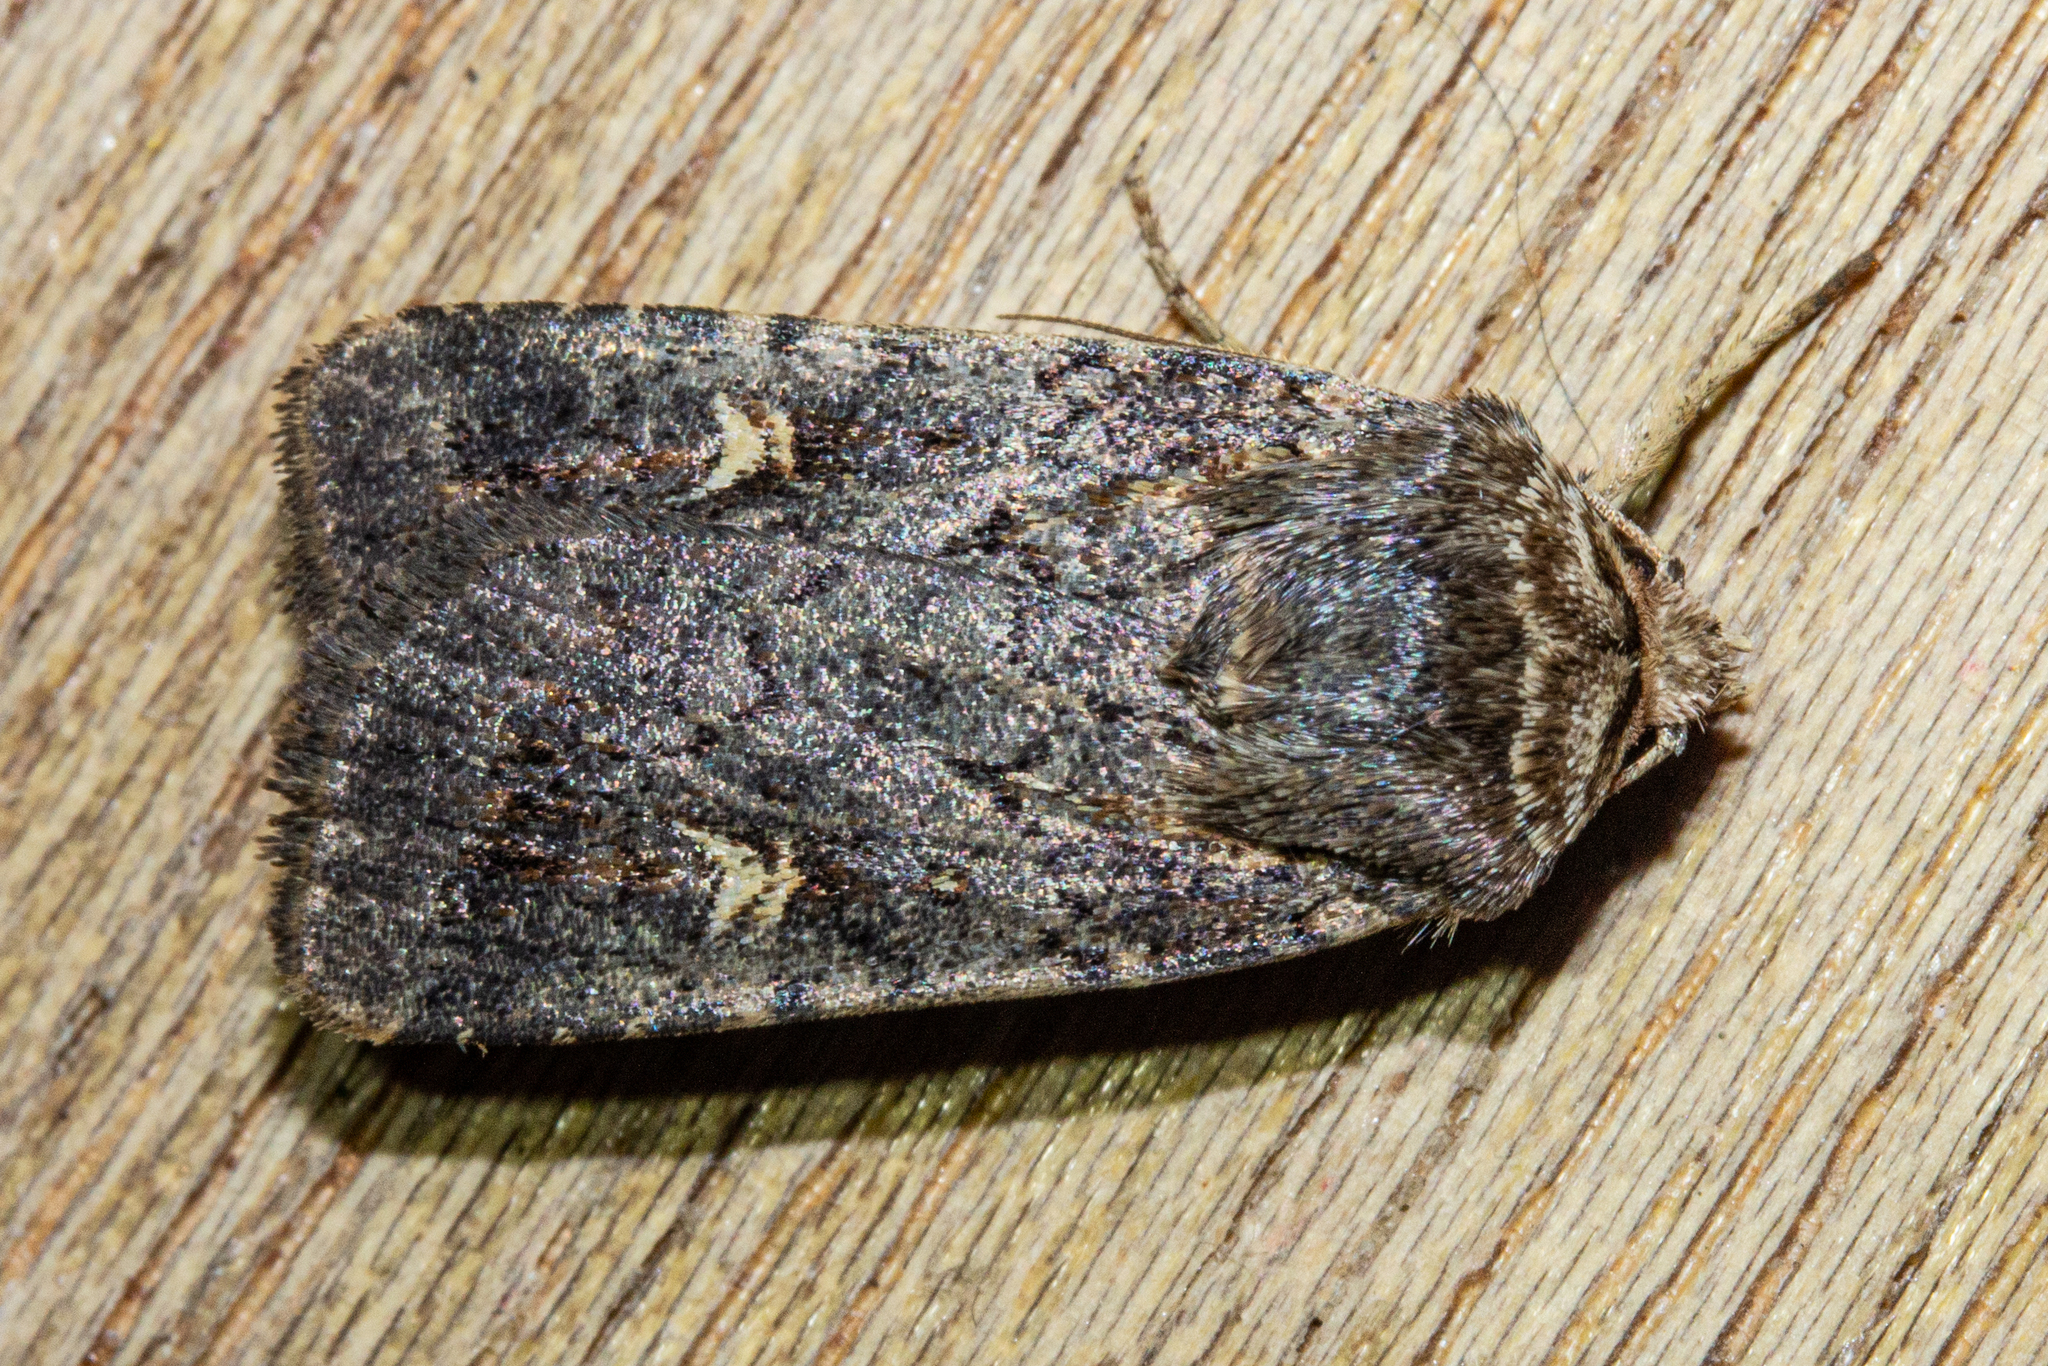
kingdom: Animalia
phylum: Arthropoda
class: Insecta
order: Lepidoptera
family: Noctuidae
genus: Proteuxoa
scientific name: Proteuxoa tetronycha
